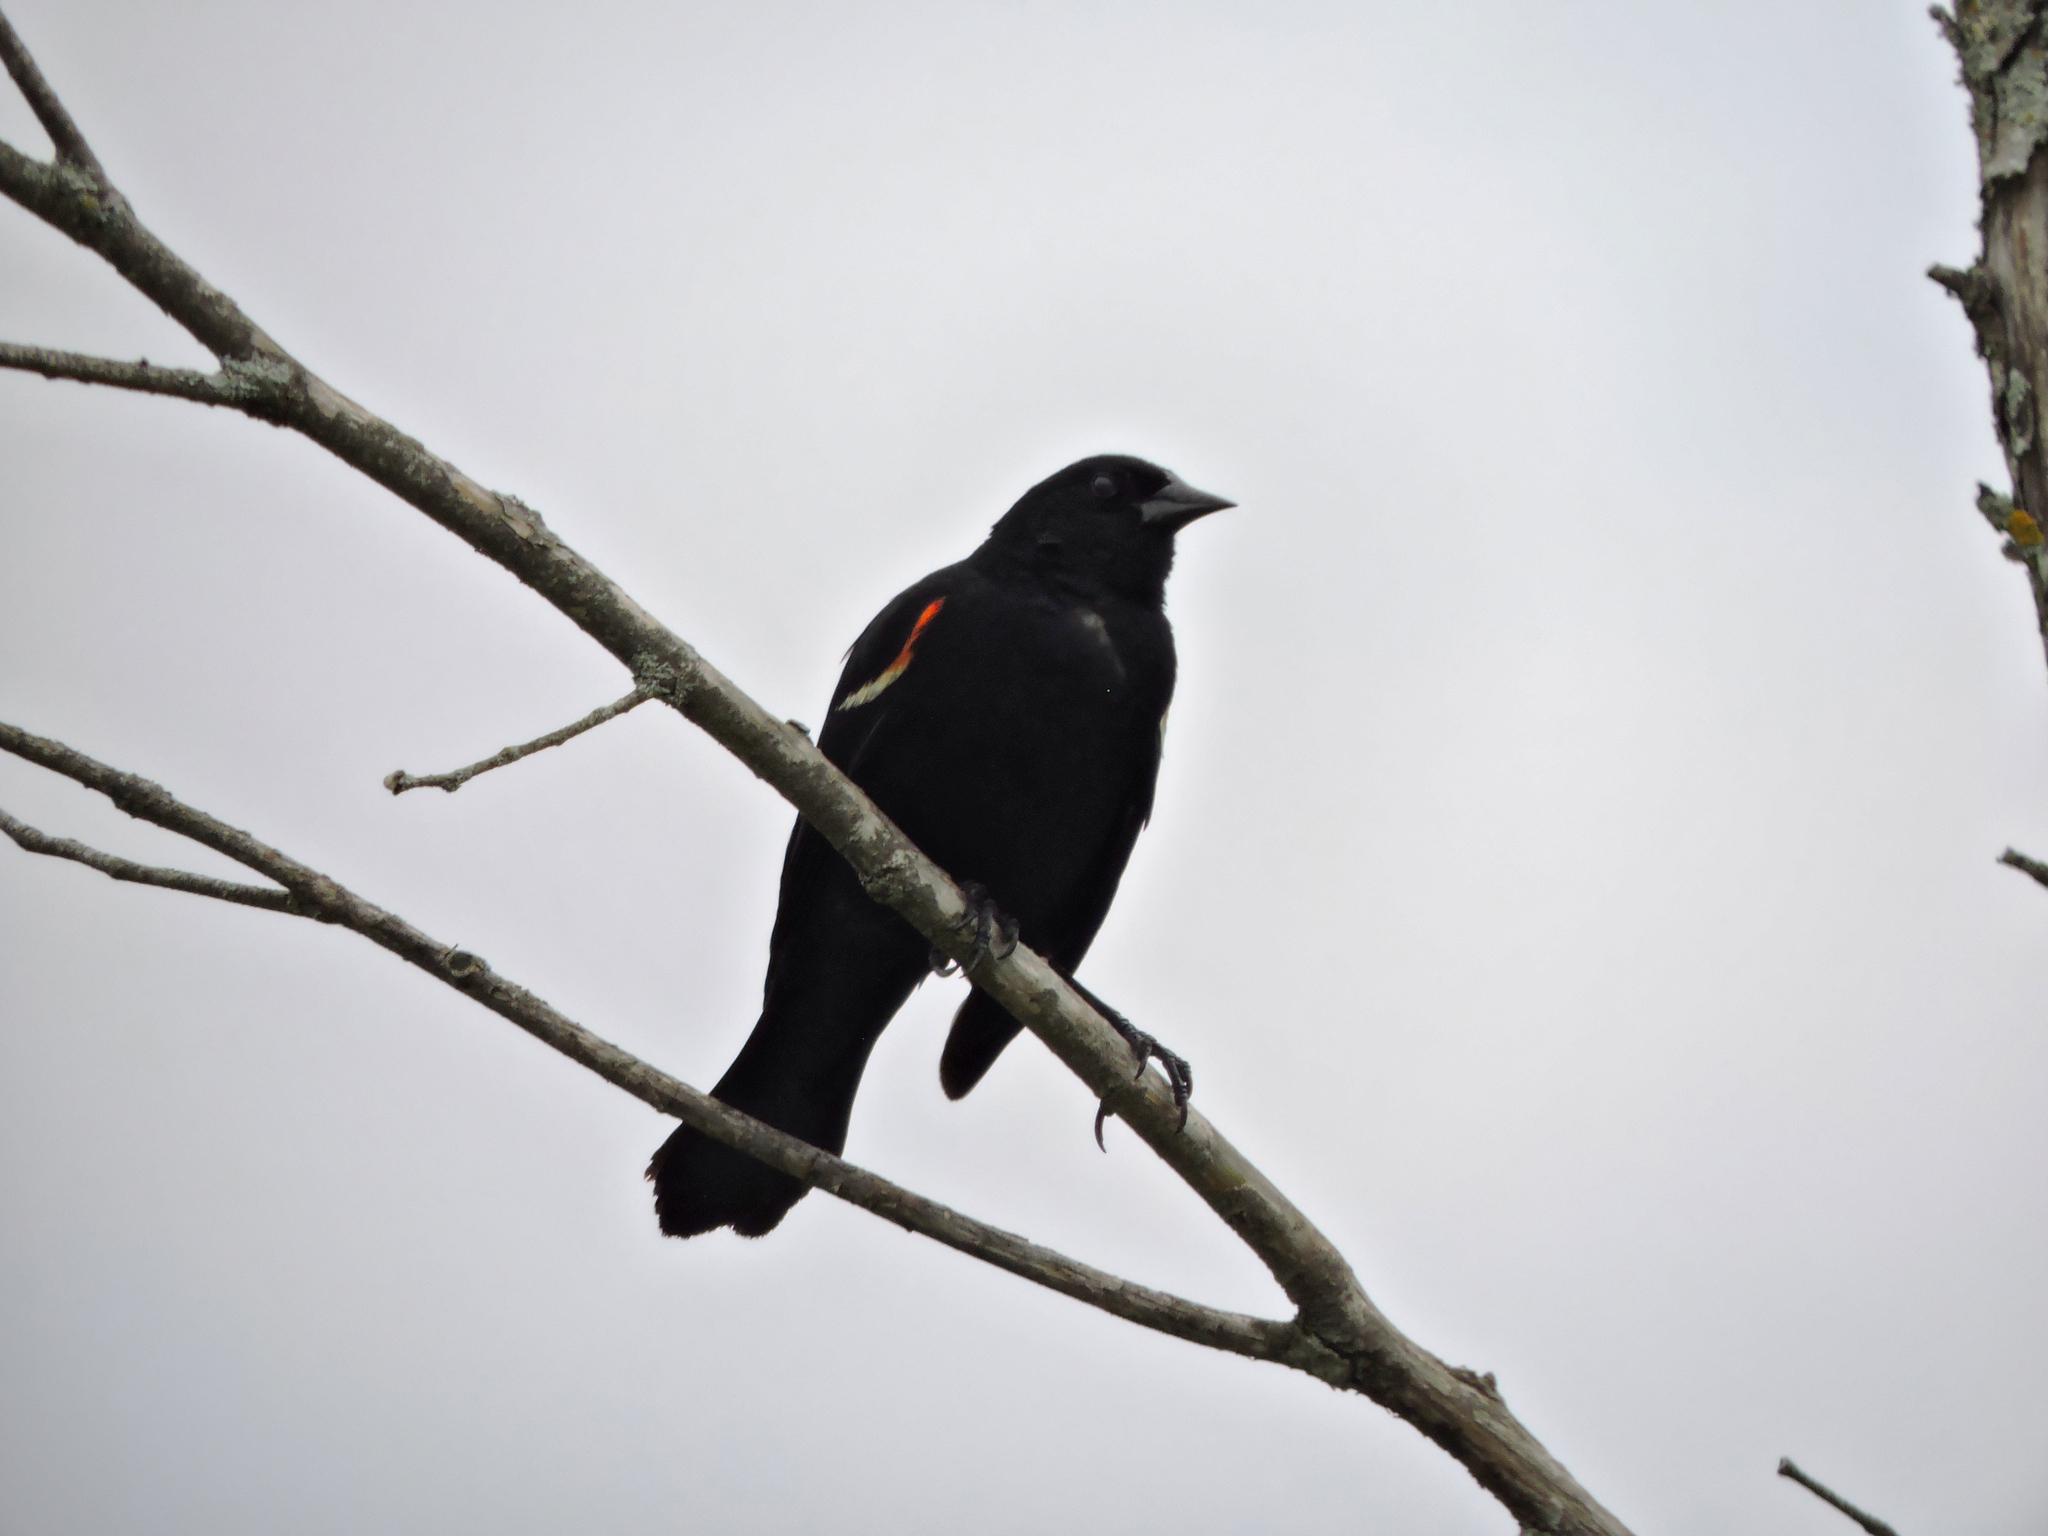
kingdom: Animalia
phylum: Chordata
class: Aves
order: Passeriformes
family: Icteridae
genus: Agelaius
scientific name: Agelaius phoeniceus
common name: Red-winged blackbird
